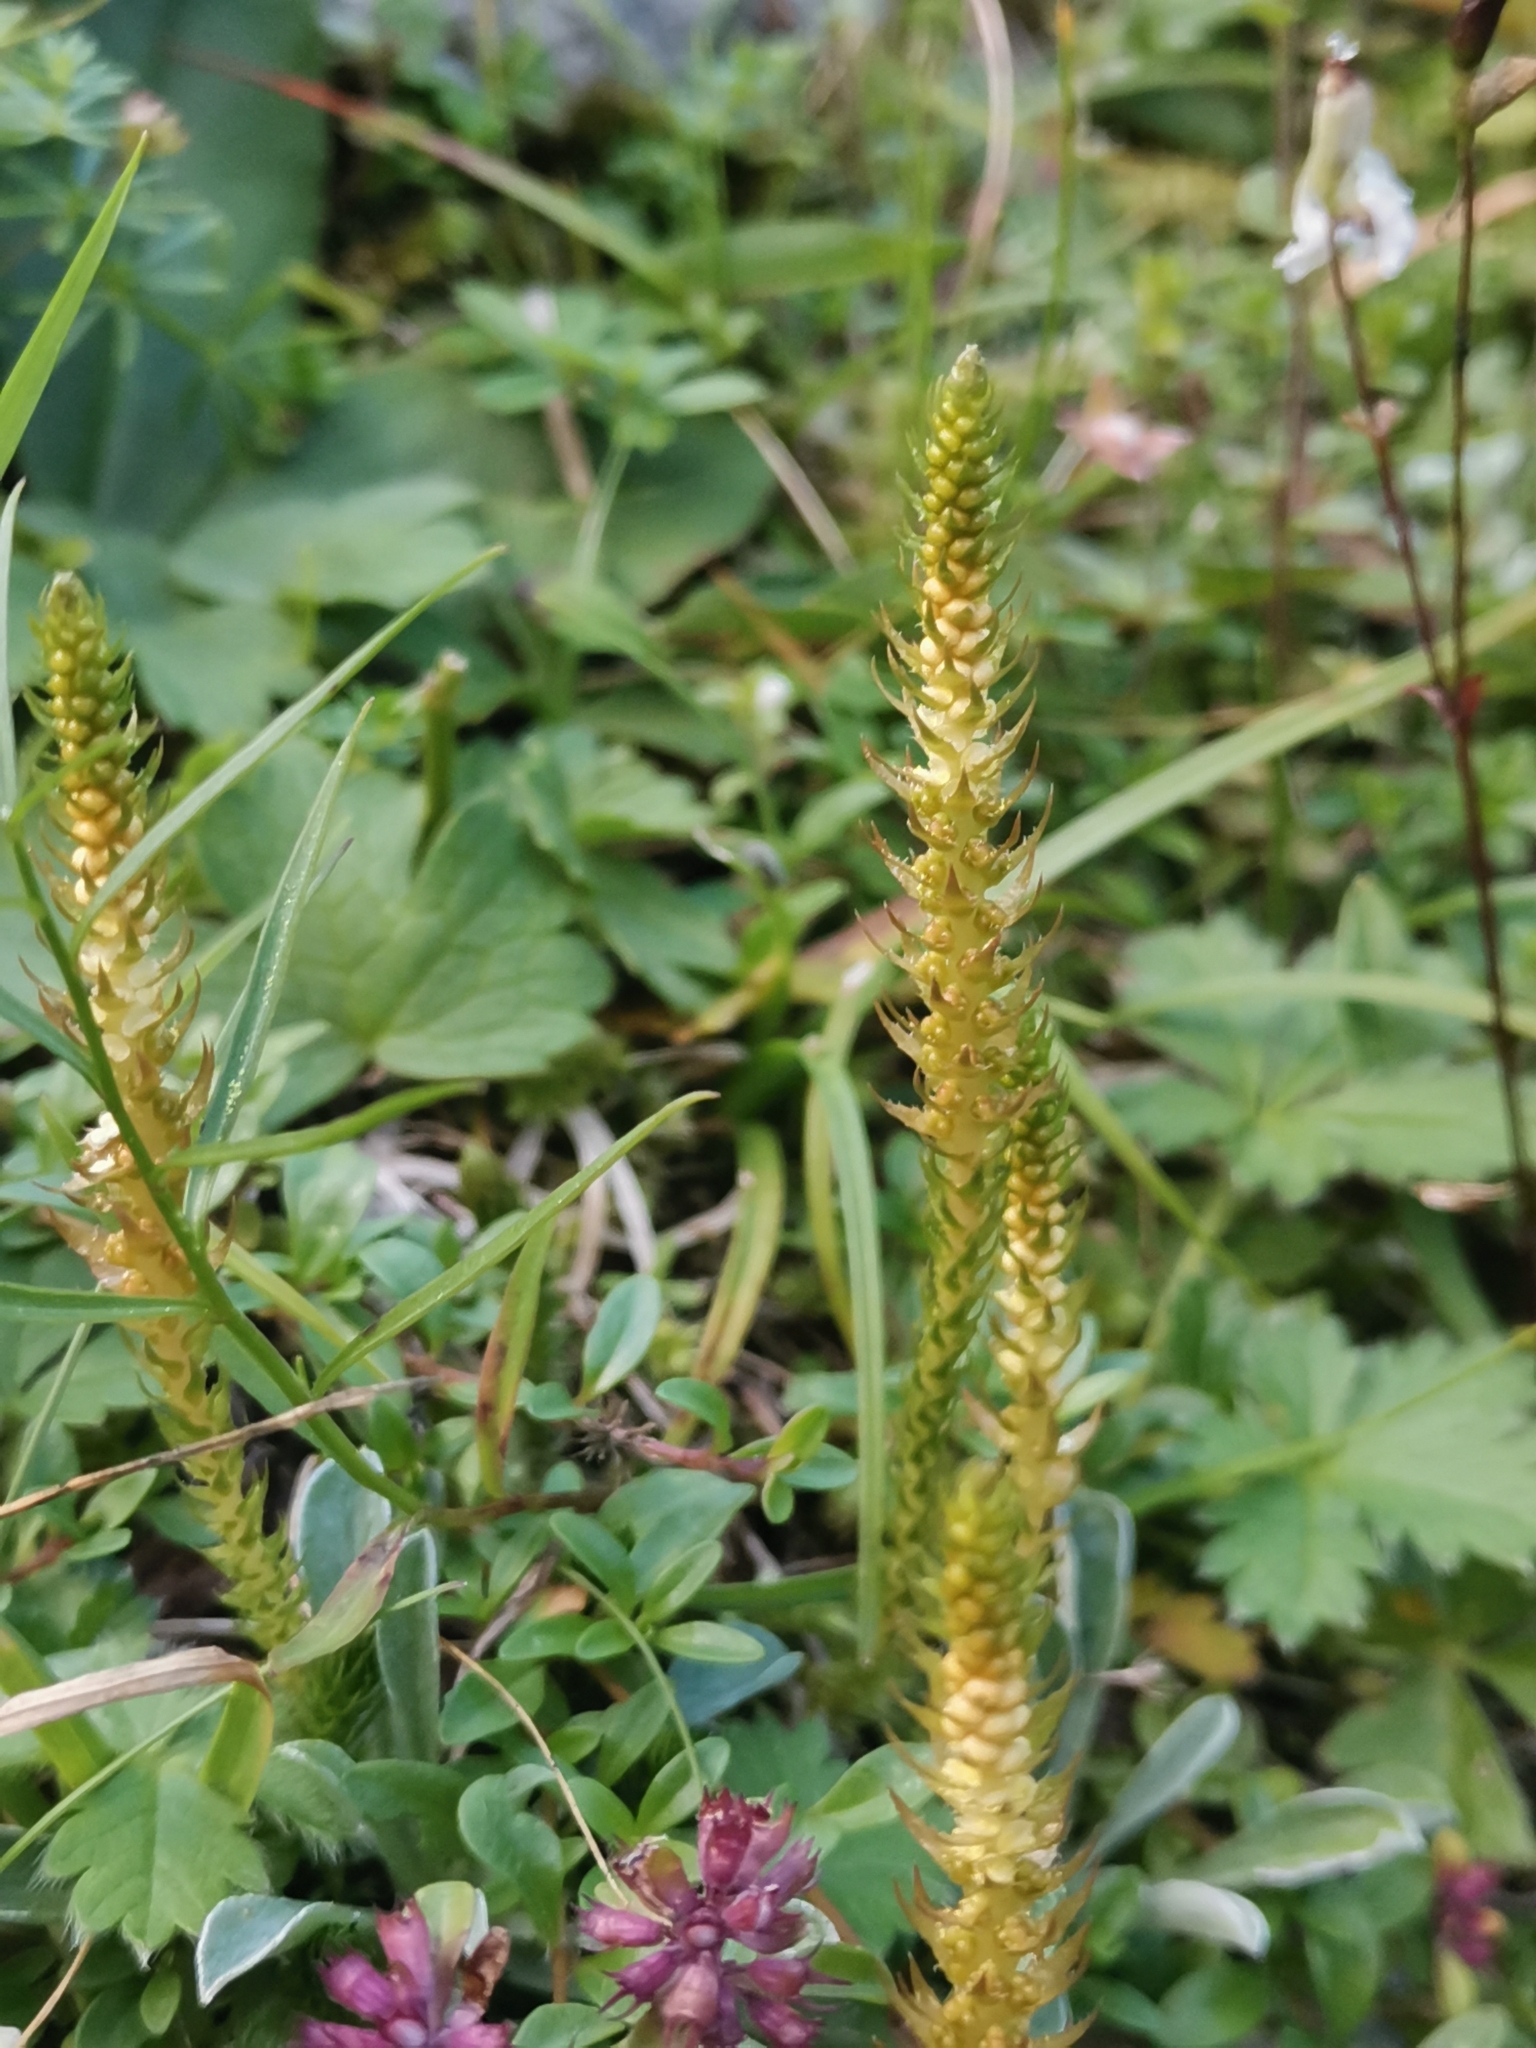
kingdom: Plantae
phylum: Tracheophyta
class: Lycopodiopsida
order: Selaginellales
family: Selaginellaceae
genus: Selaginella
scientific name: Selaginella selaginoides
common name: Prickly mountain-moss
